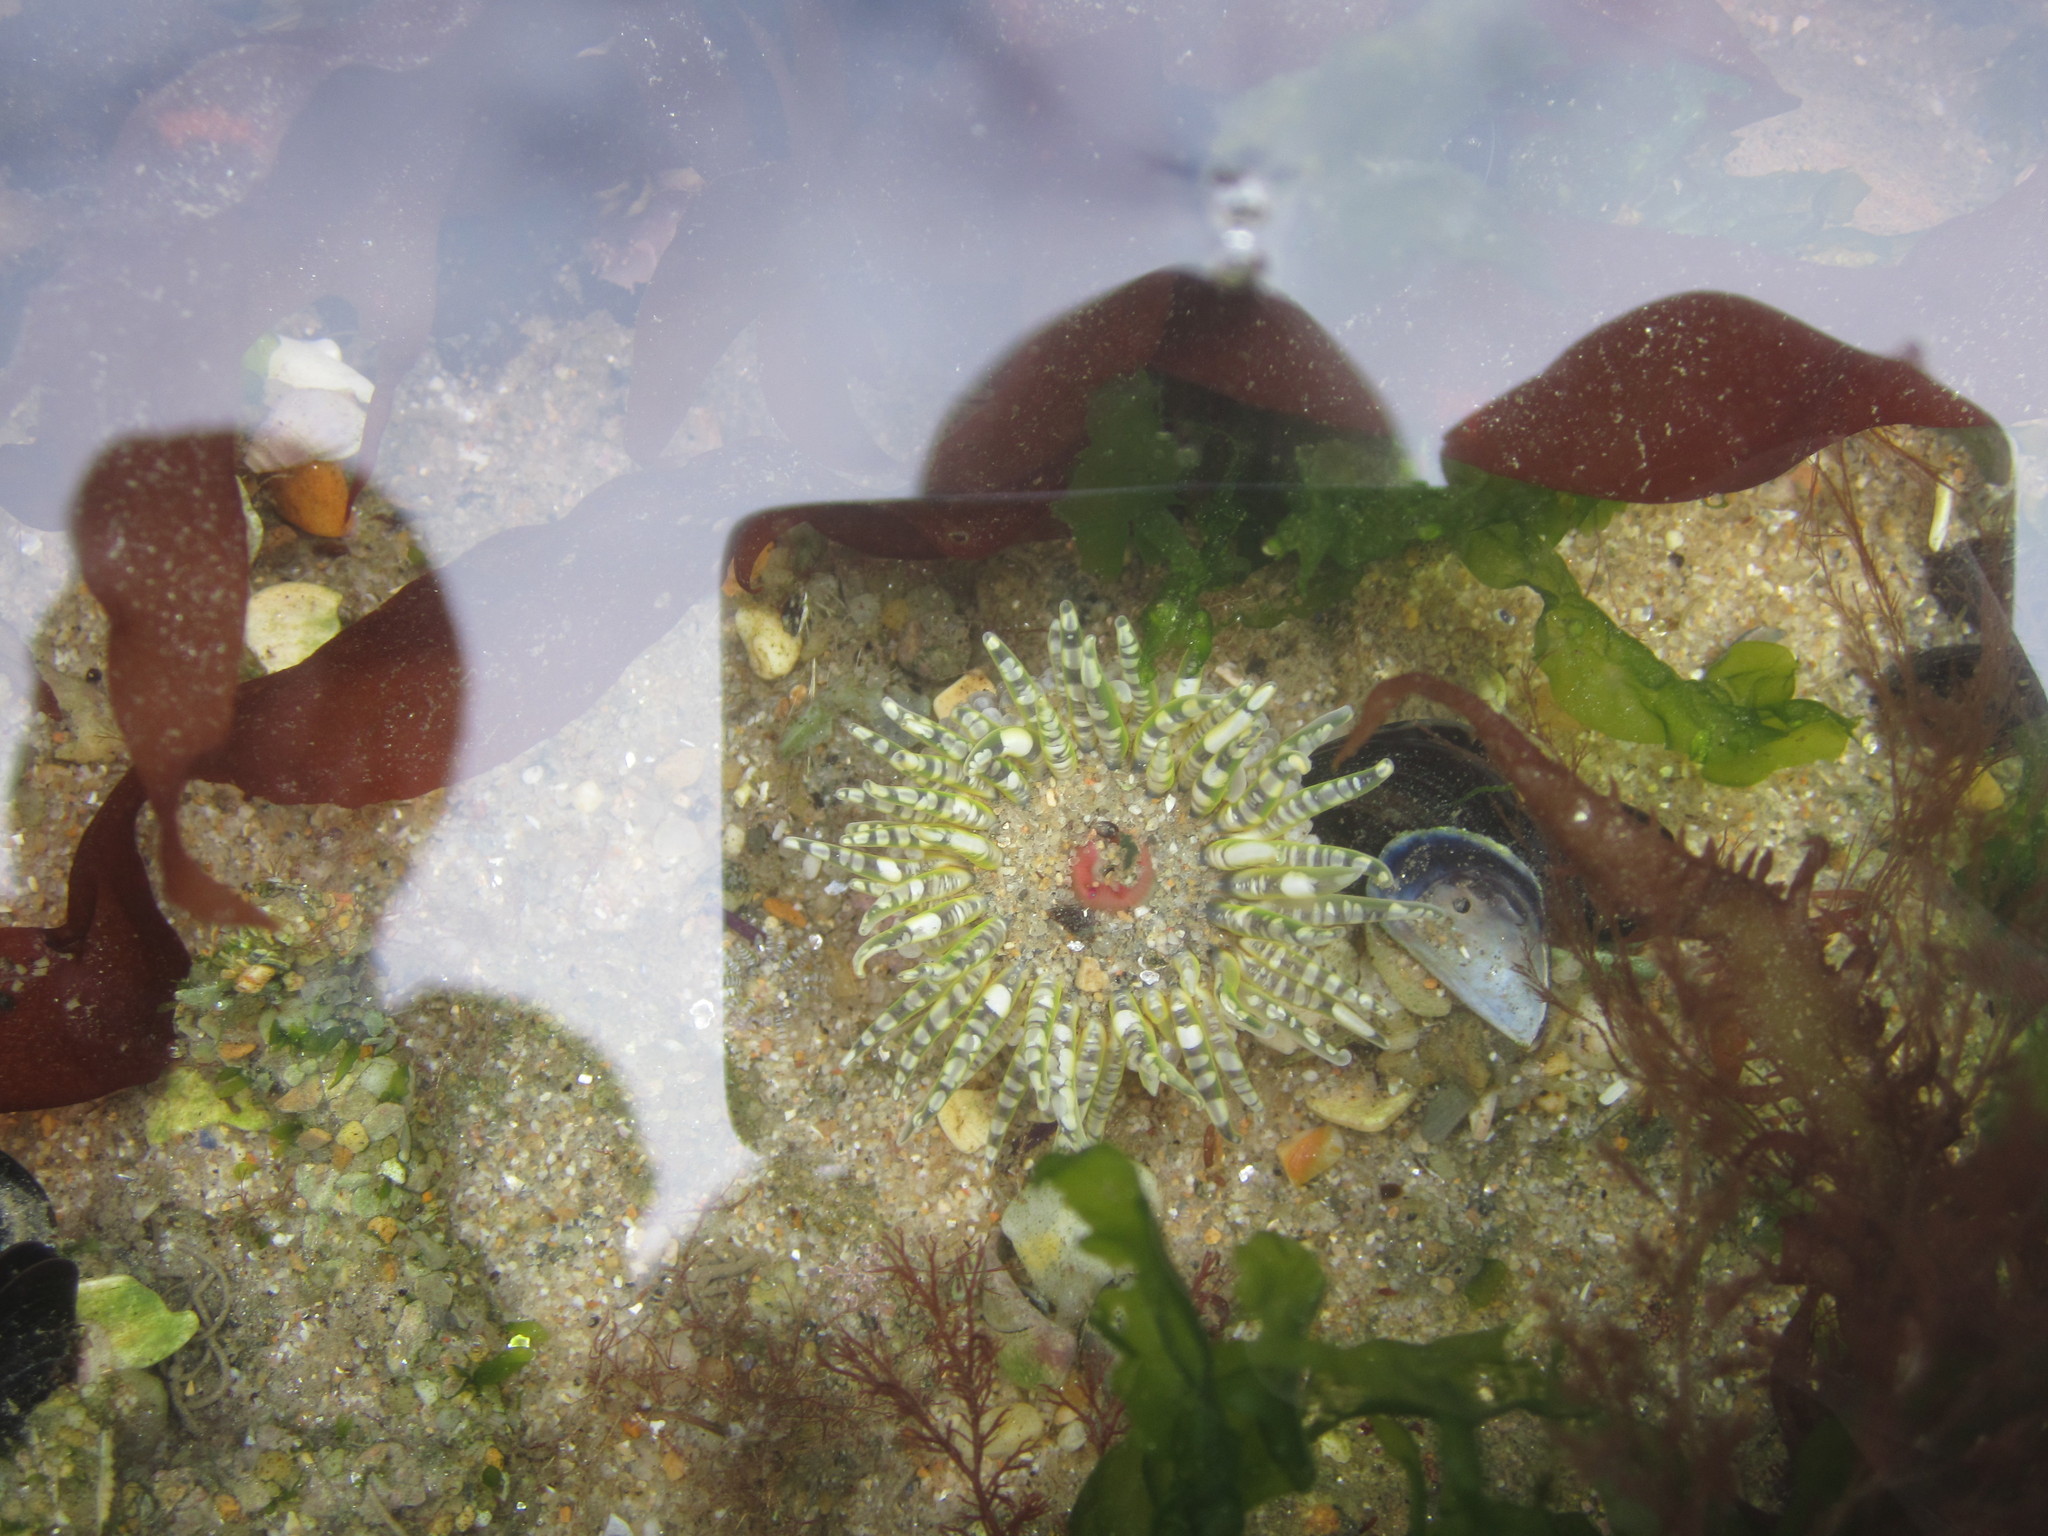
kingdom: Animalia
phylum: Cnidaria
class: Anthozoa
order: Actiniaria
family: Actiniidae
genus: Bunodactis
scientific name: Bunodactis verrucosa
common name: Gem anemone
